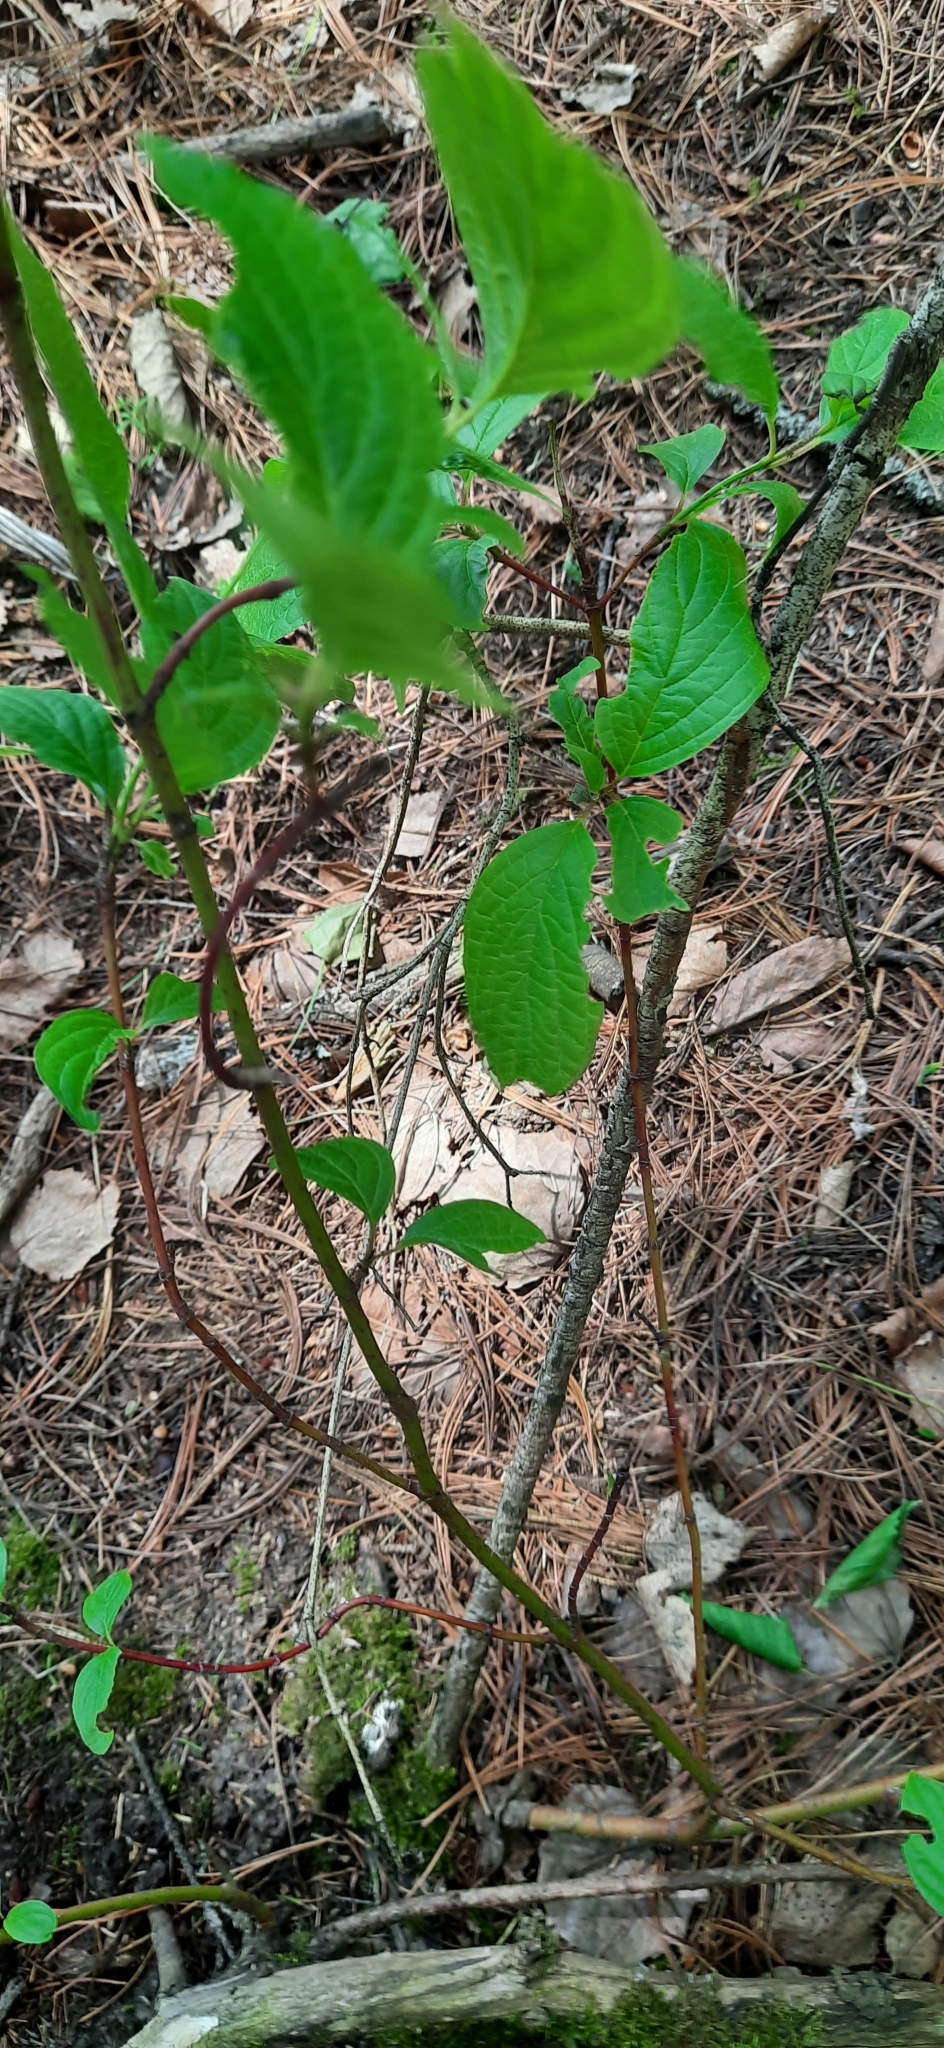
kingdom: Plantae
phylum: Tracheophyta
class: Magnoliopsida
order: Cornales
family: Cornaceae
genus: Cornus
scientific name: Cornus alba
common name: White dogwood
